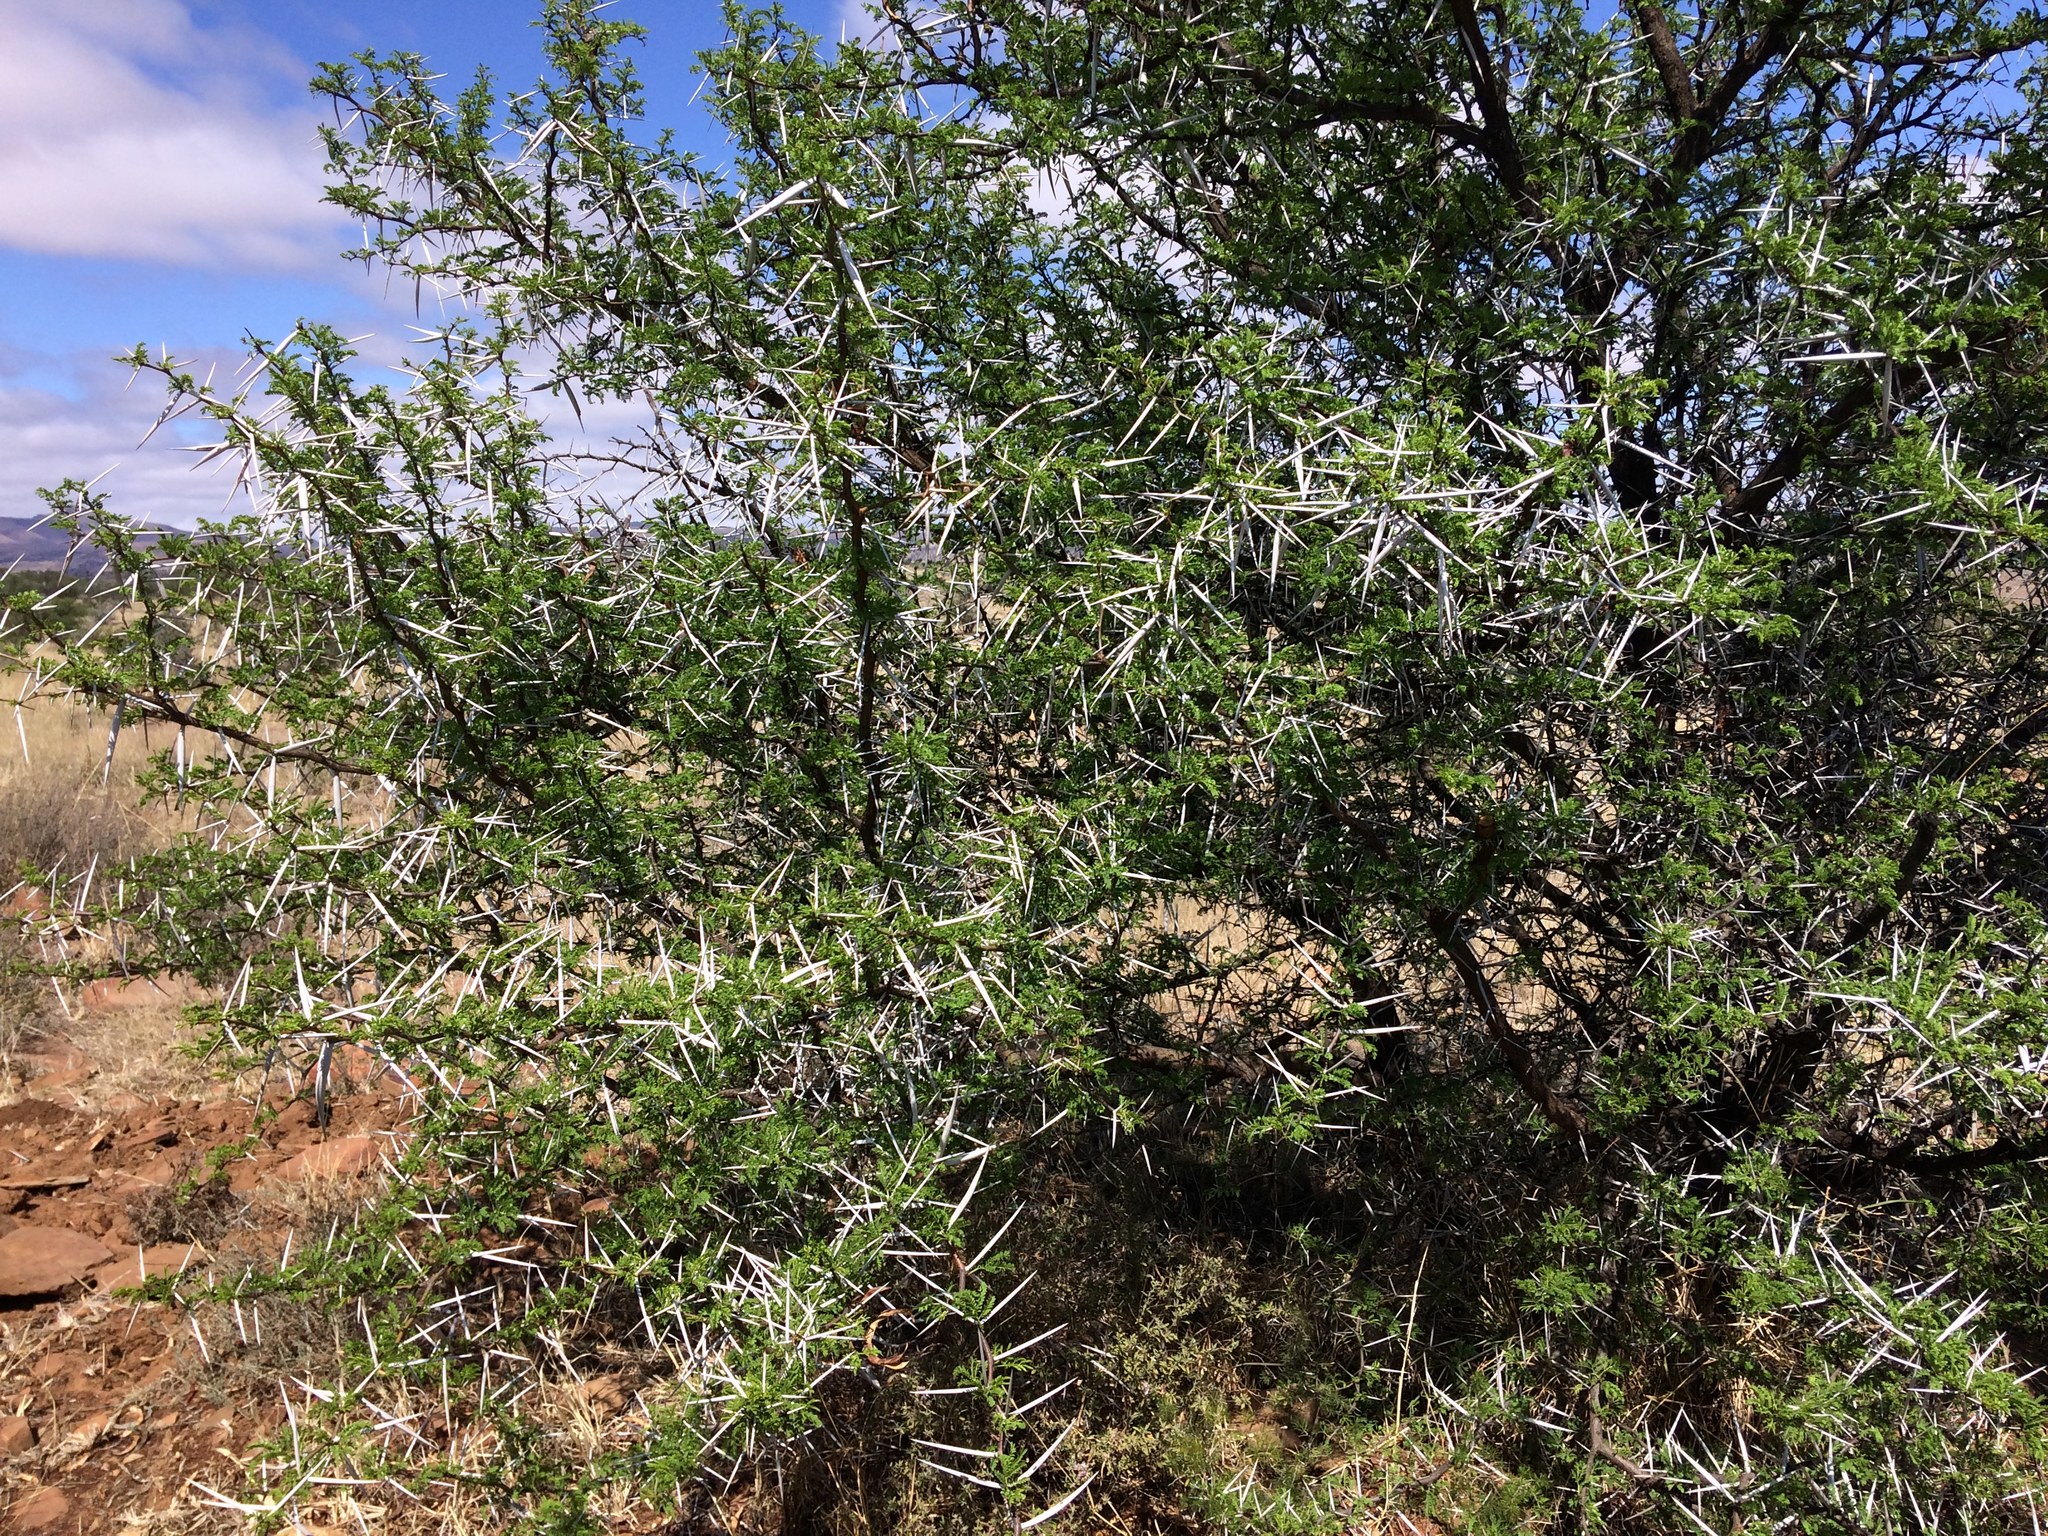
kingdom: Plantae
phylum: Tracheophyta
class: Magnoliopsida
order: Fabales
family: Fabaceae
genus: Vachellia
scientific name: Vachellia karroo
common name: Sweet thorn
